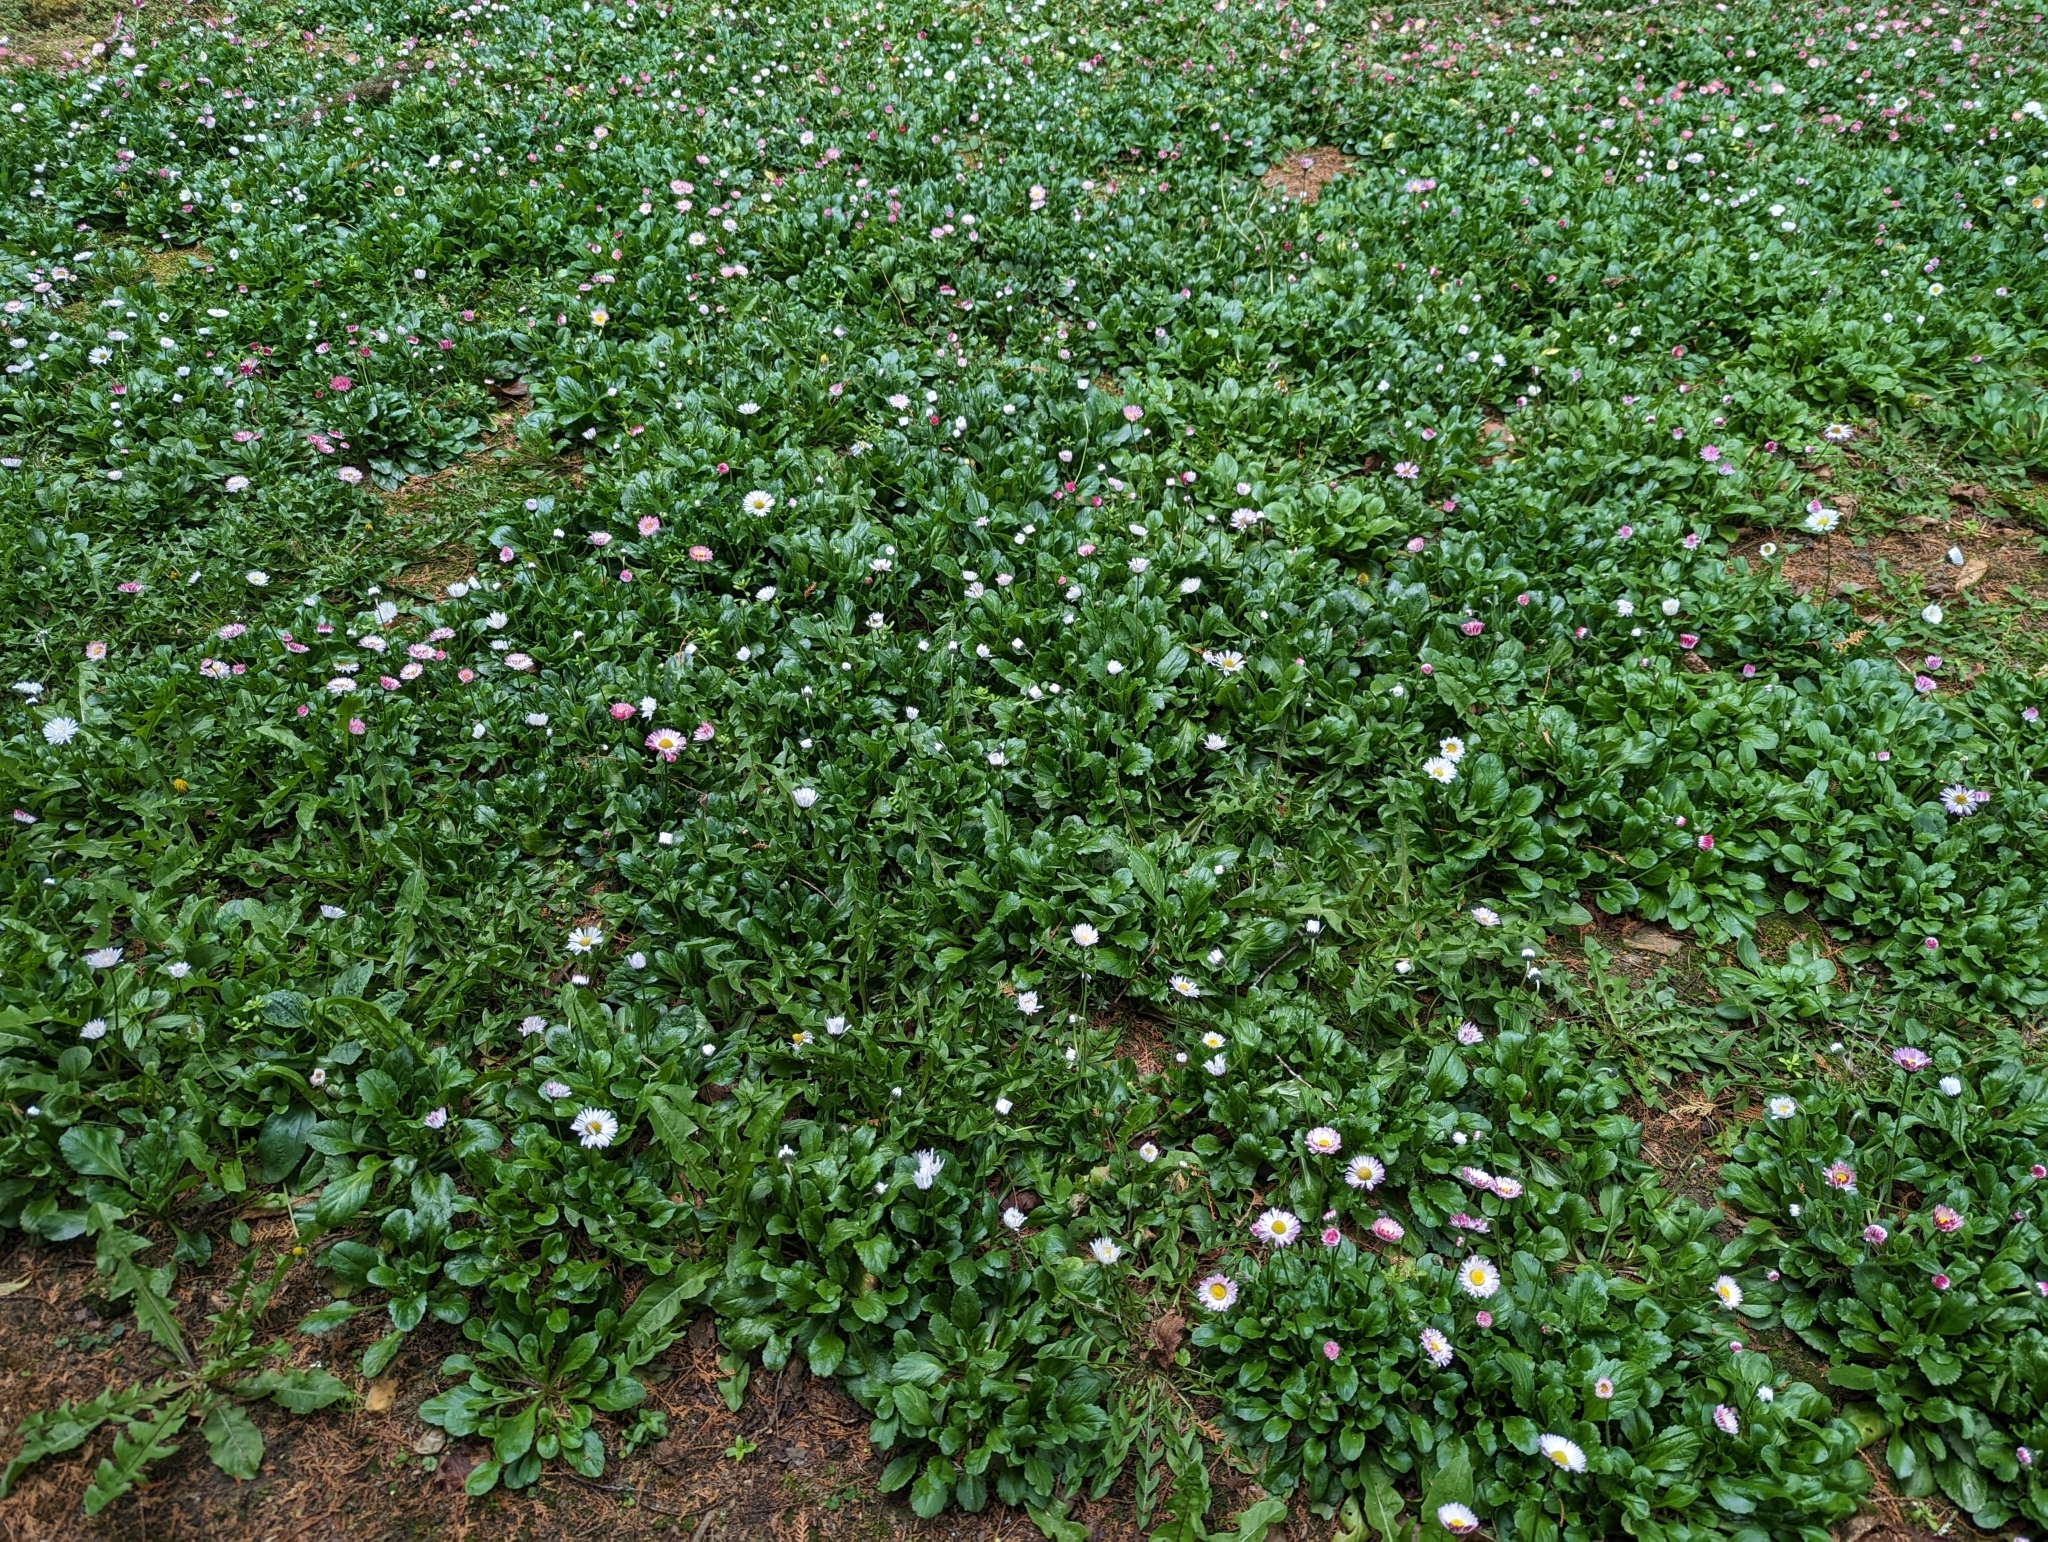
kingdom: Plantae
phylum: Tracheophyta
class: Magnoliopsida
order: Asterales
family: Asteraceae
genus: Bellis
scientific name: Bellis perennis
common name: Lawndaisy
